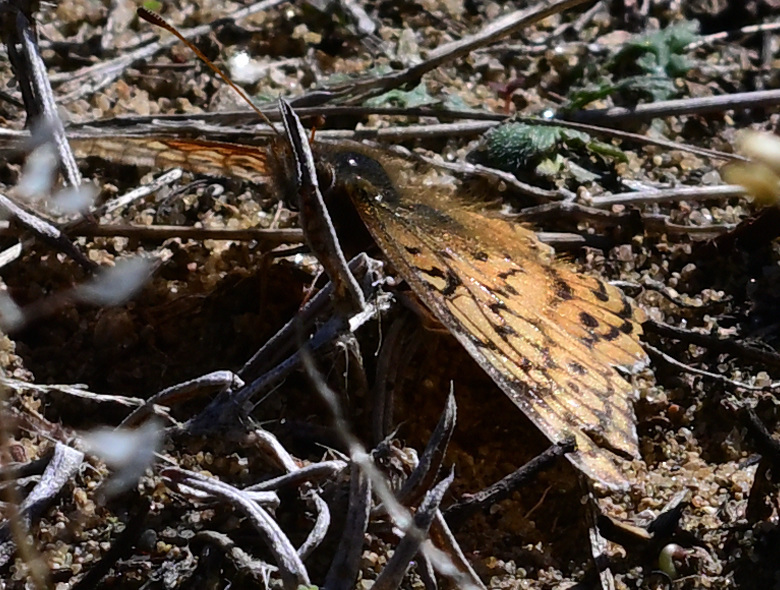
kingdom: Animalia
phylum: Arthropoda
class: Insecta
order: Lepidoptera
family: Nymphalidae
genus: Euptoieta
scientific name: Euptoieta claudia
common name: Variegated fritillary
